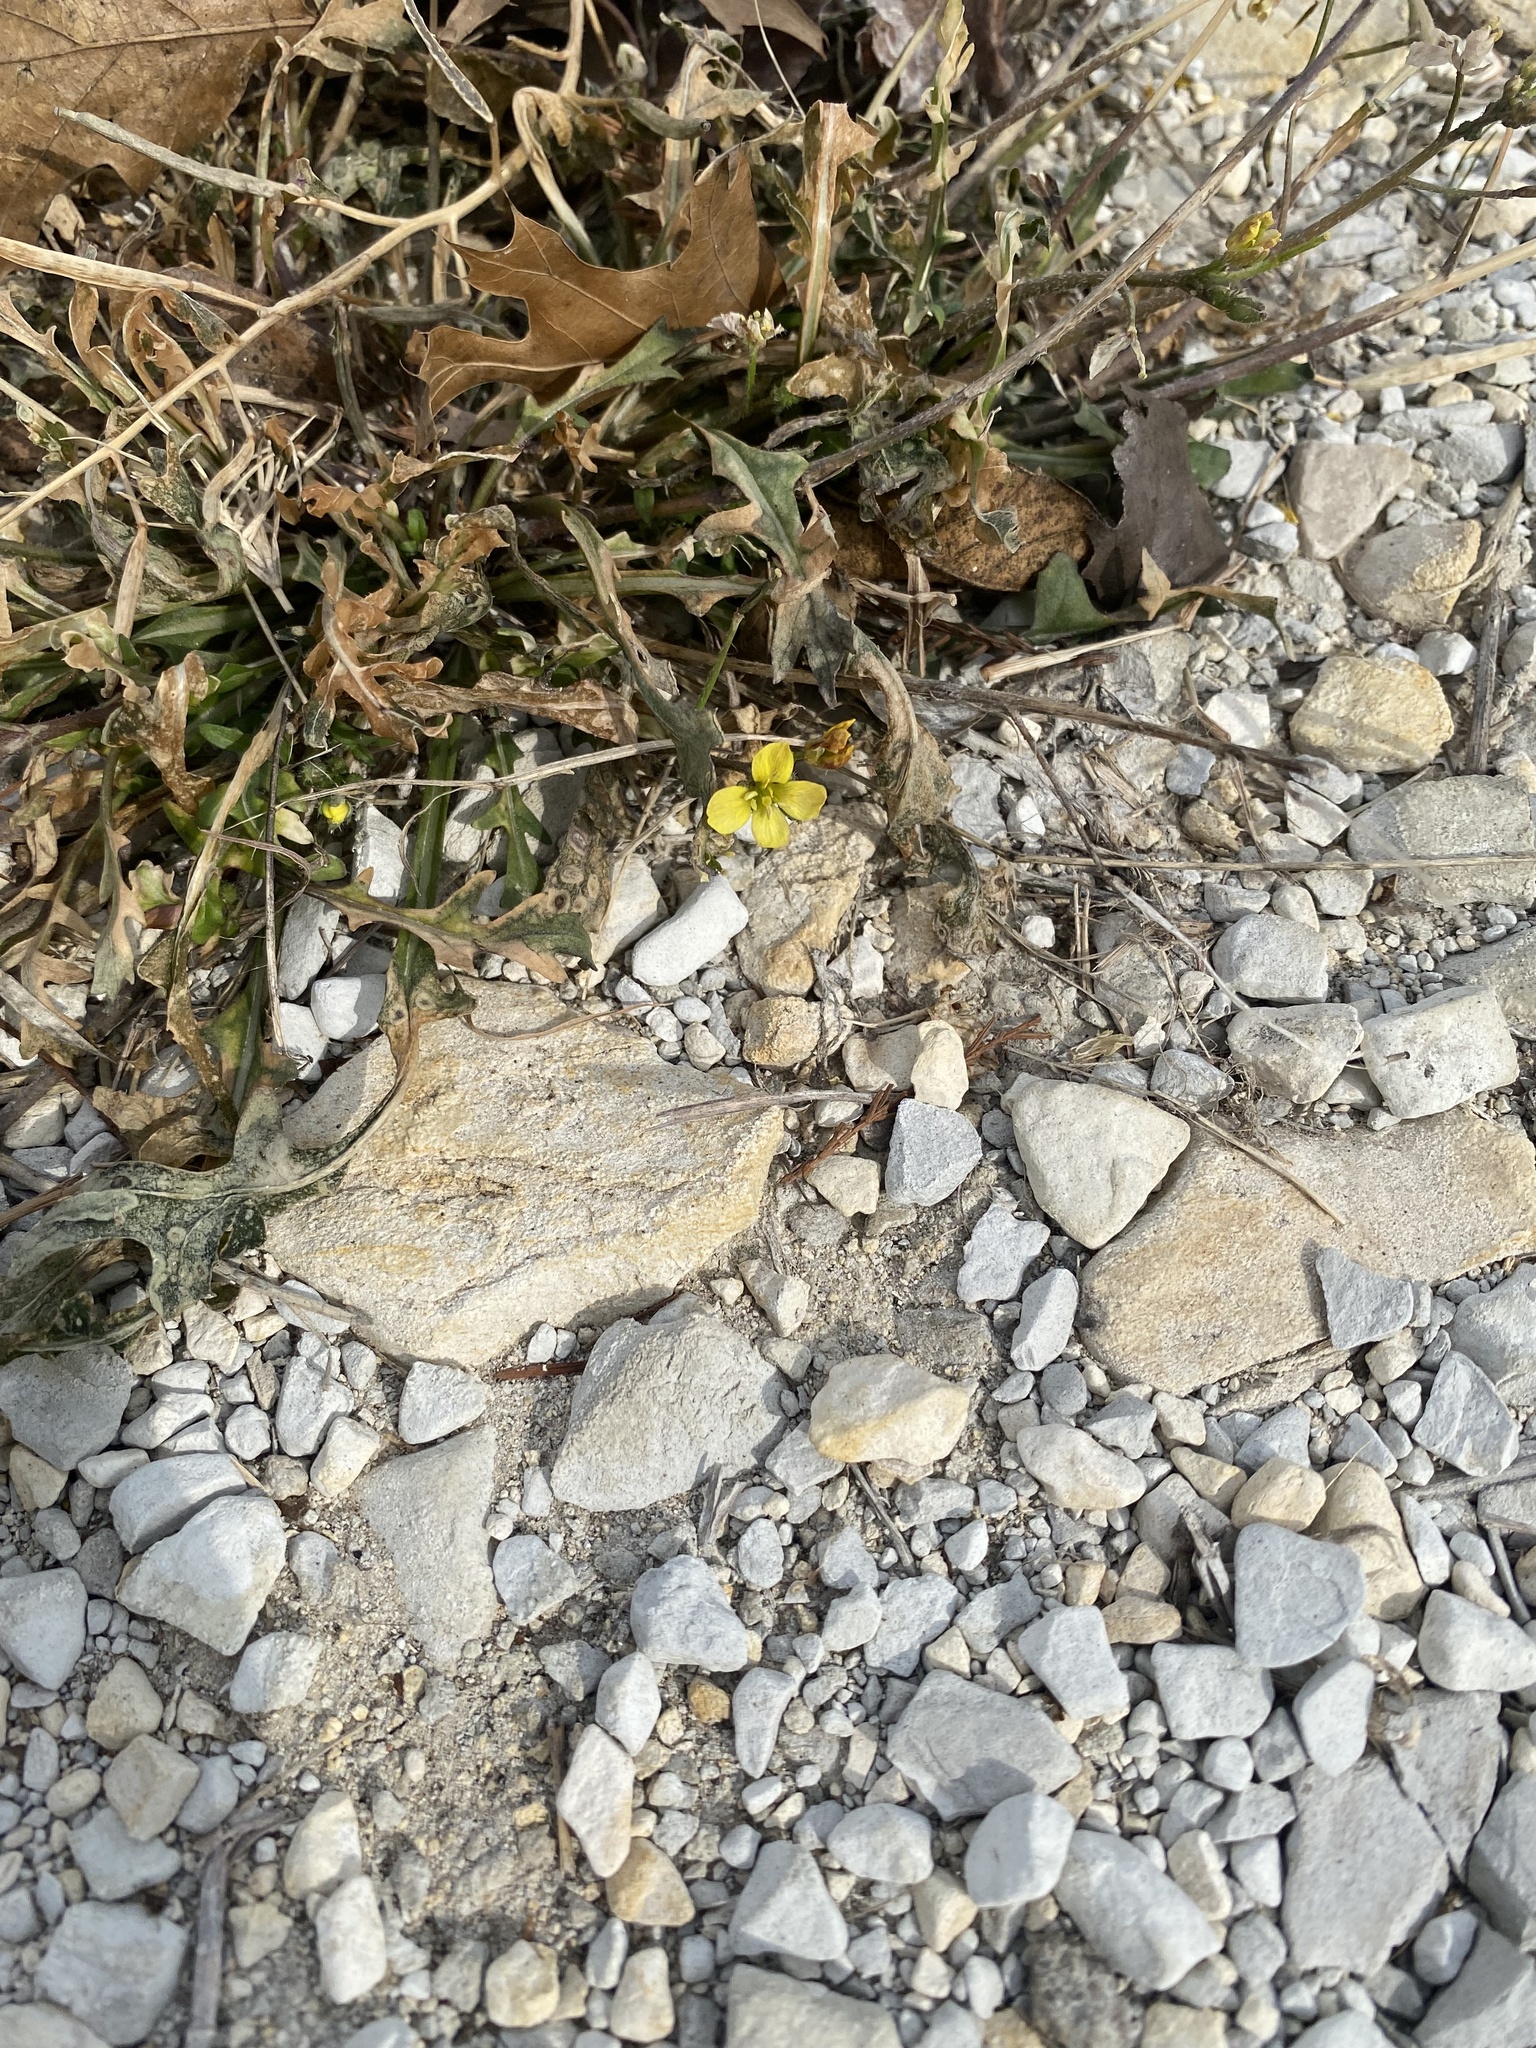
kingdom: Plantae
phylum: Tracheophyta
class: Magnoliopsida
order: Brassicales
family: Brassicaceae
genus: Diplotaxis
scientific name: Diplotaxis muralis
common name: Annual wall-rocket
